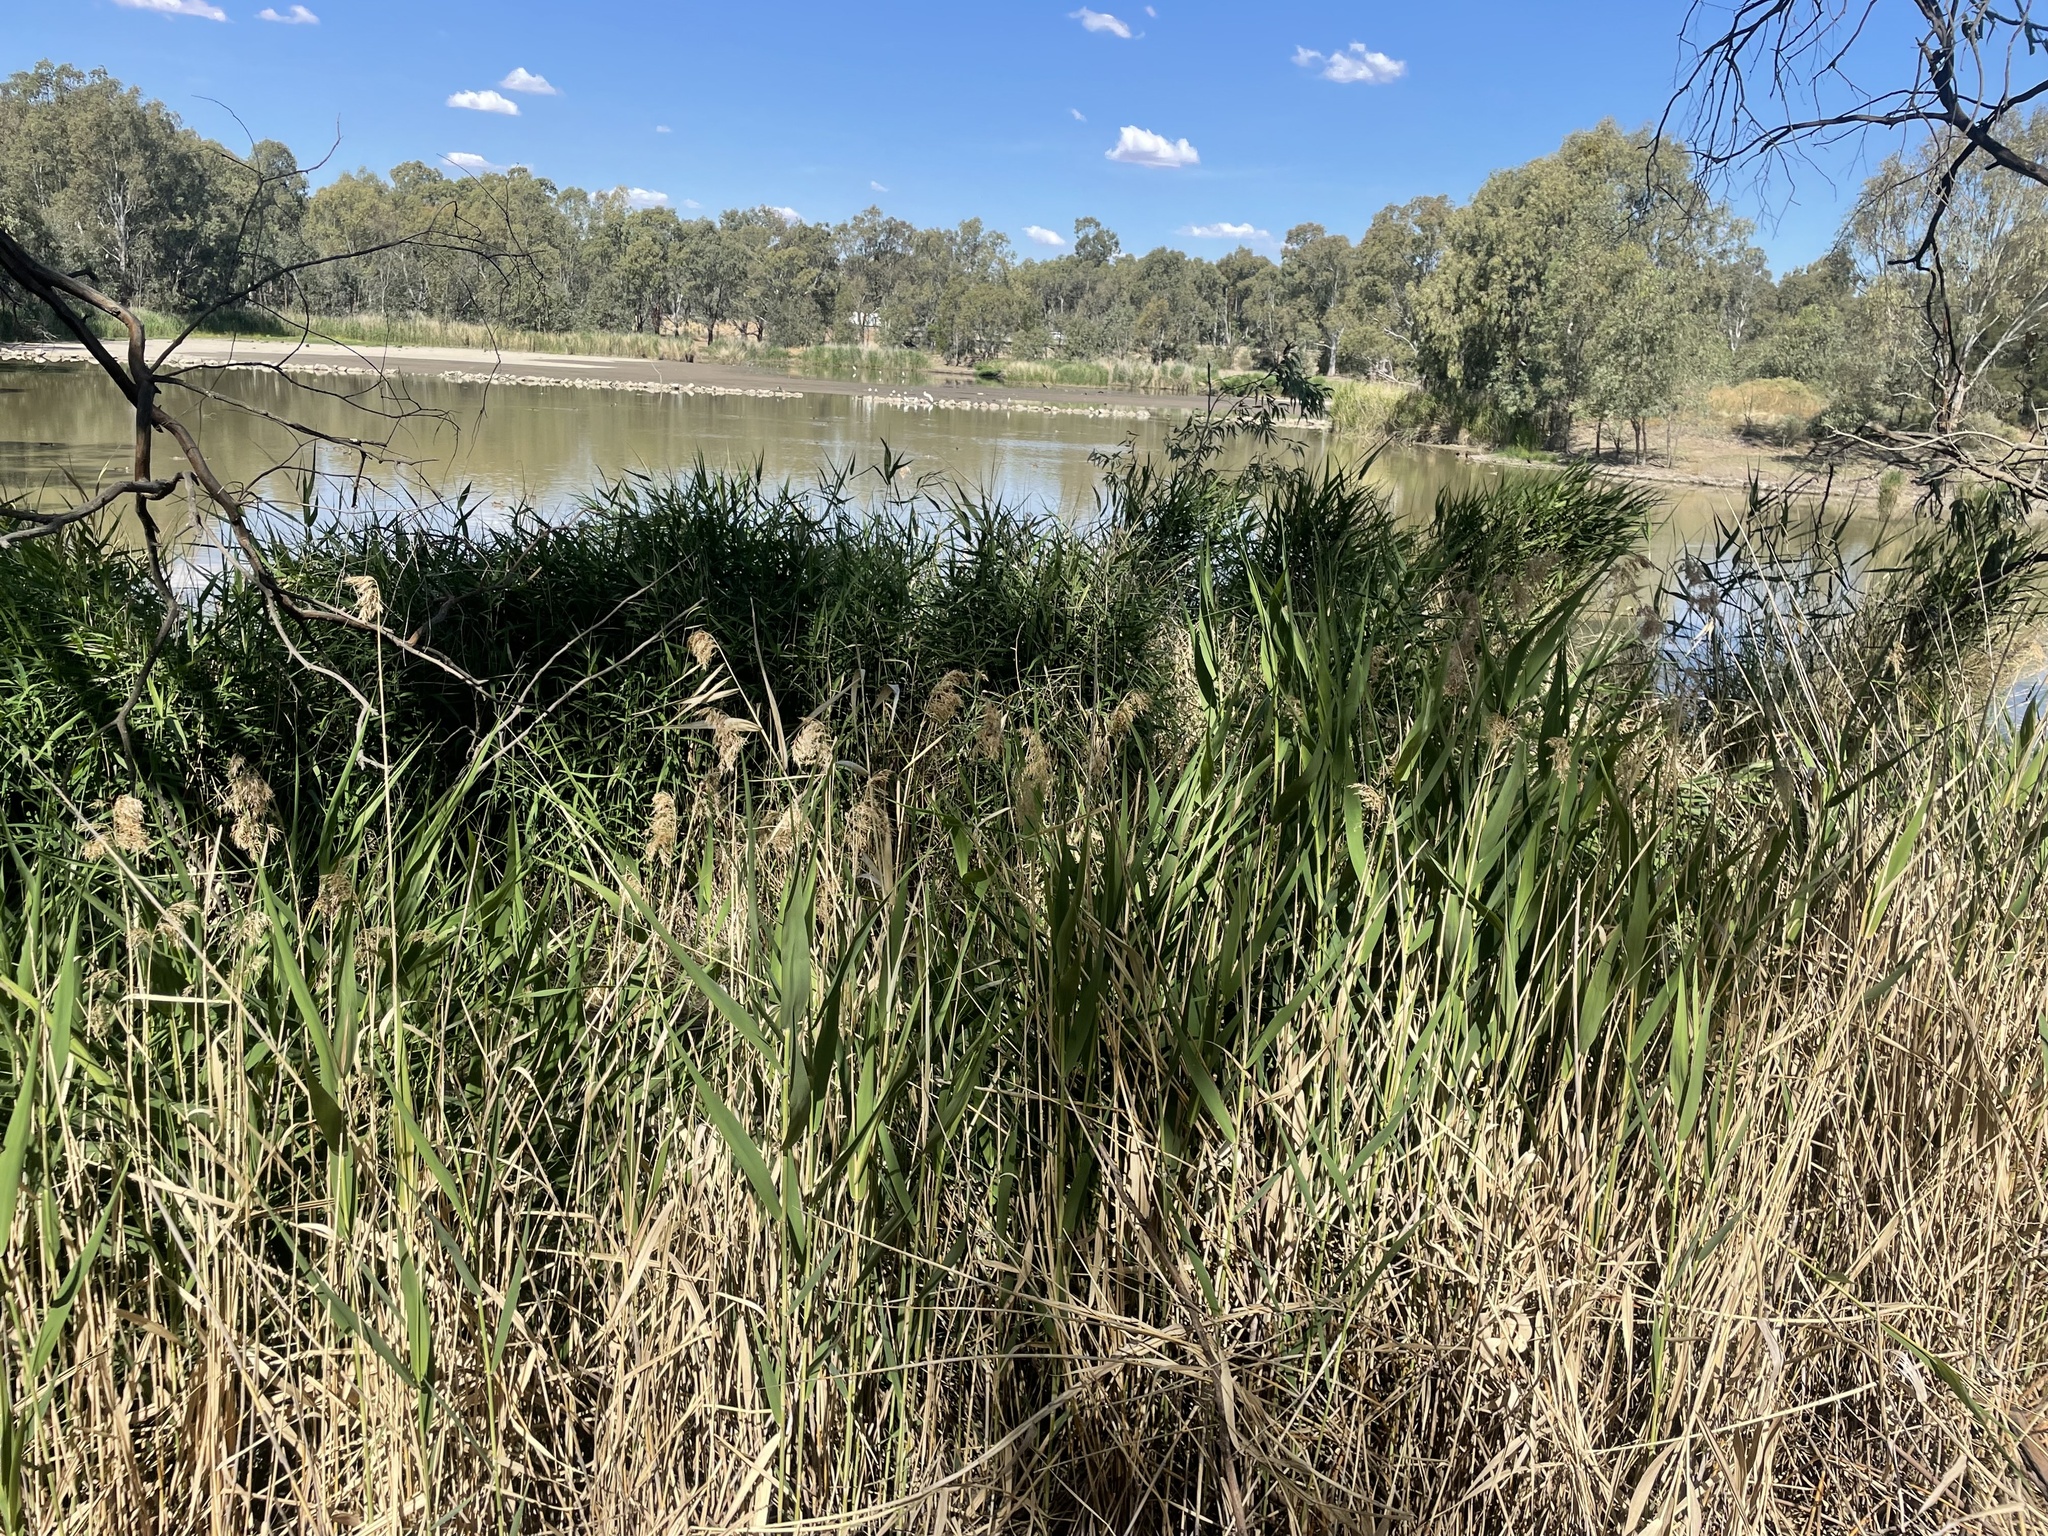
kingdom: Plantae
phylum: Tracheophyta
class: Liliopsida
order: Poales
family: Poaceae
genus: Phragmites
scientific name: Phragmites australis
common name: Common reed
